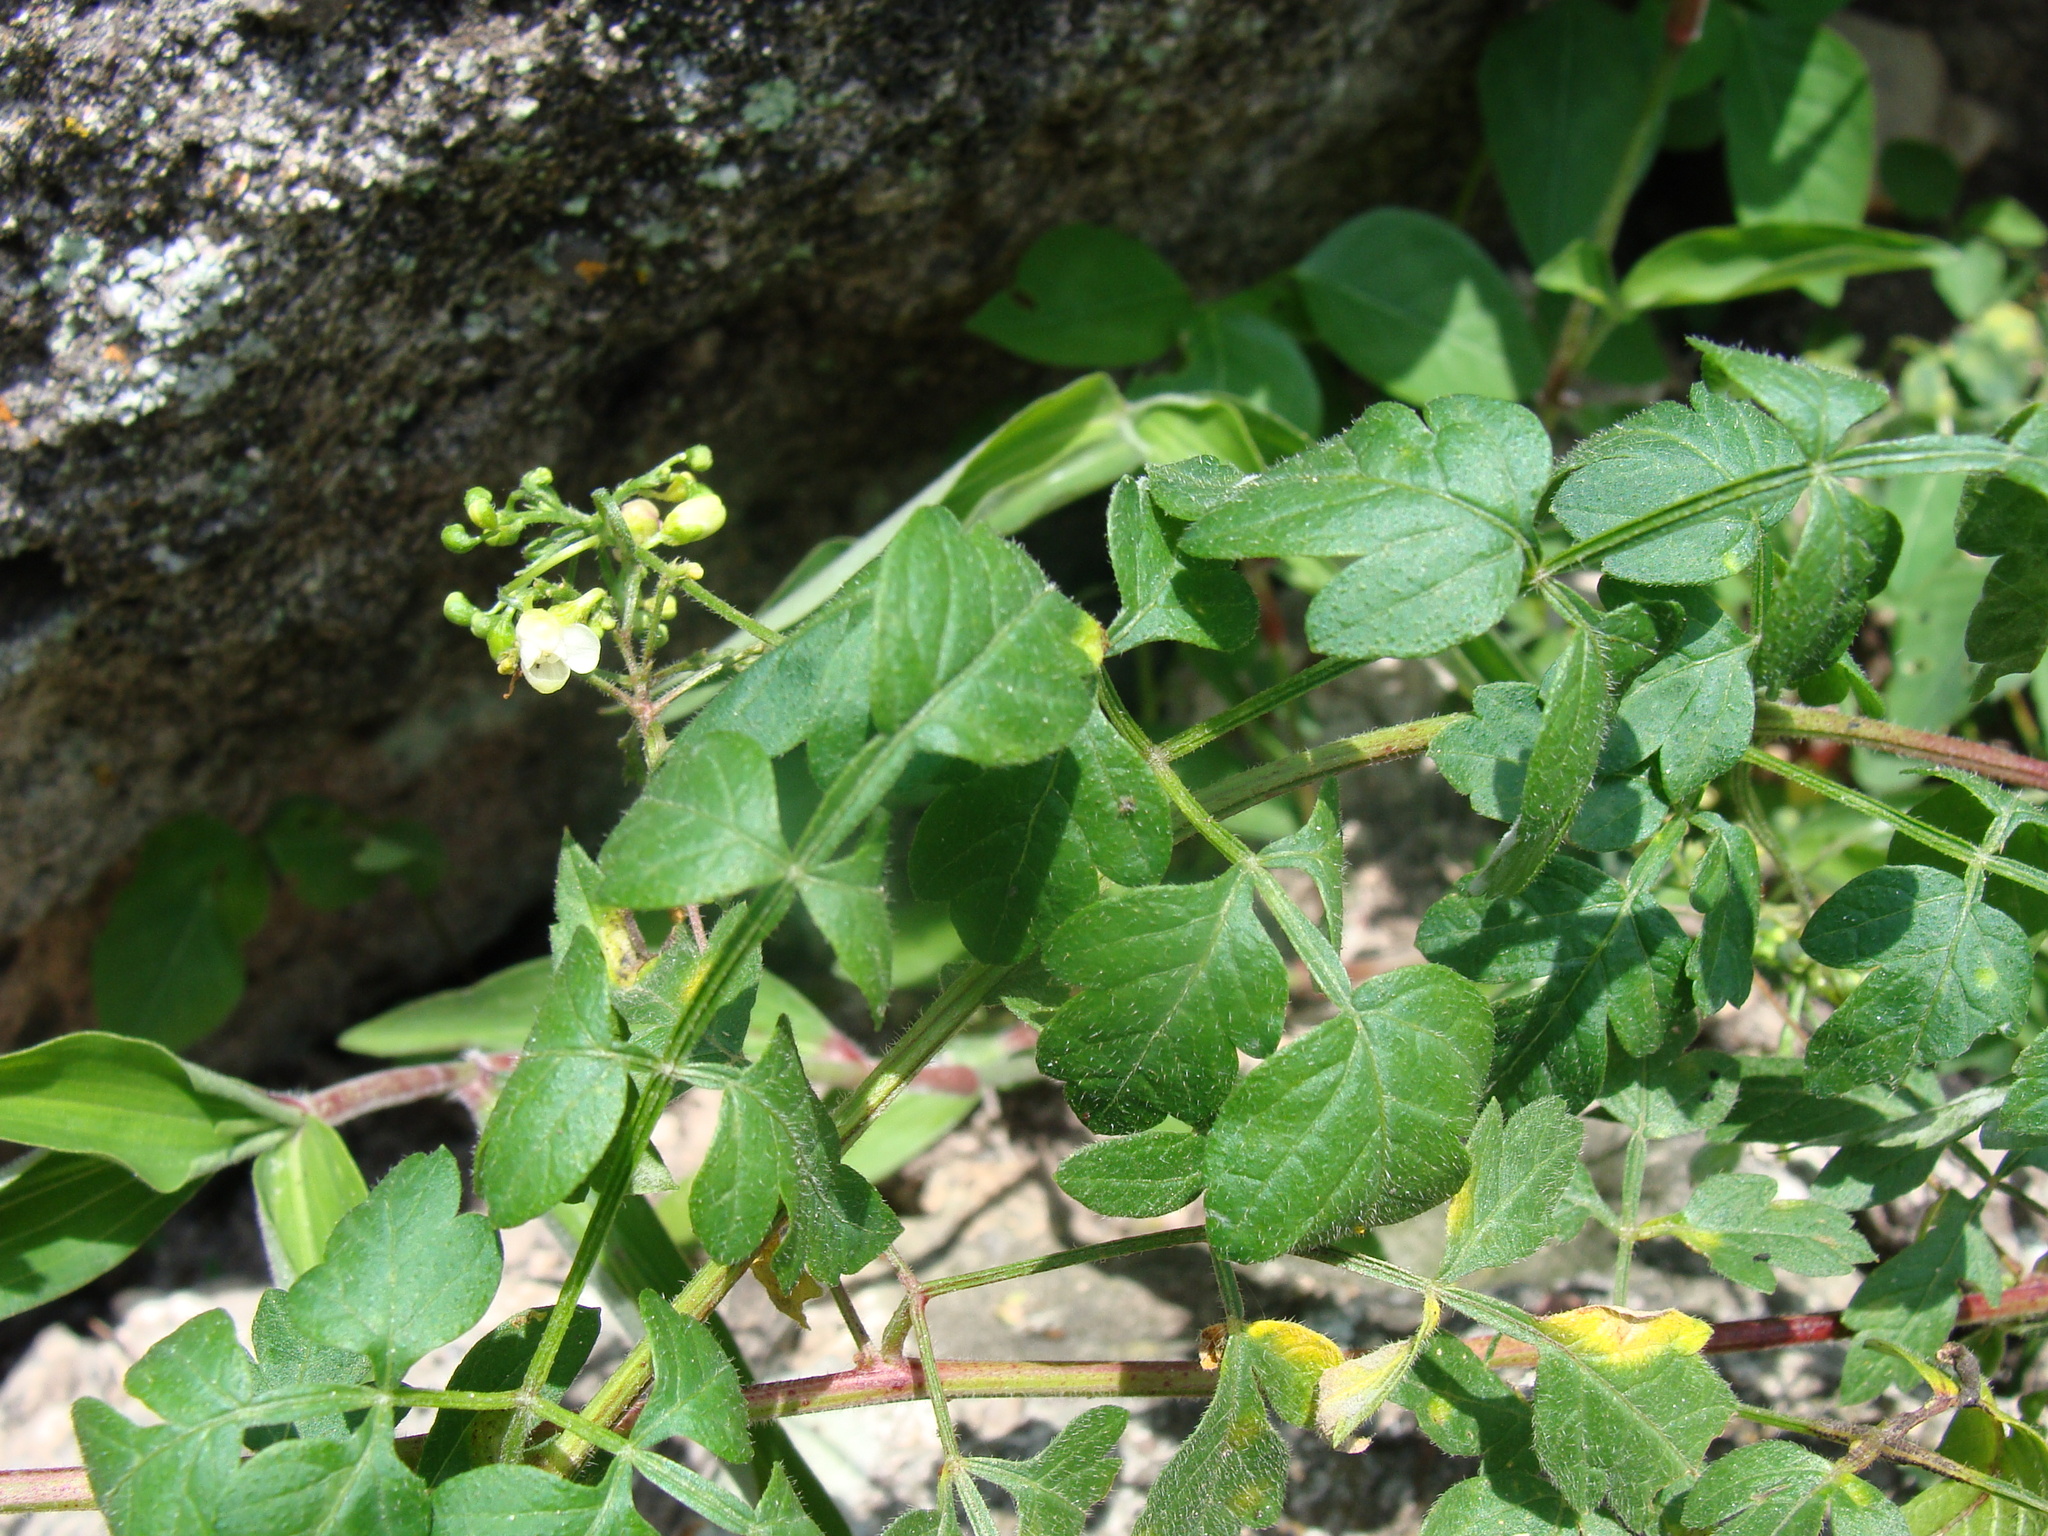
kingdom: Plantae
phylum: Tracheophyta
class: Magnoliopsida
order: Sapindales
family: Sapindaceae
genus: Cardiospermum
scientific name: Cardiospermum halicacabum
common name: Balloon vine
